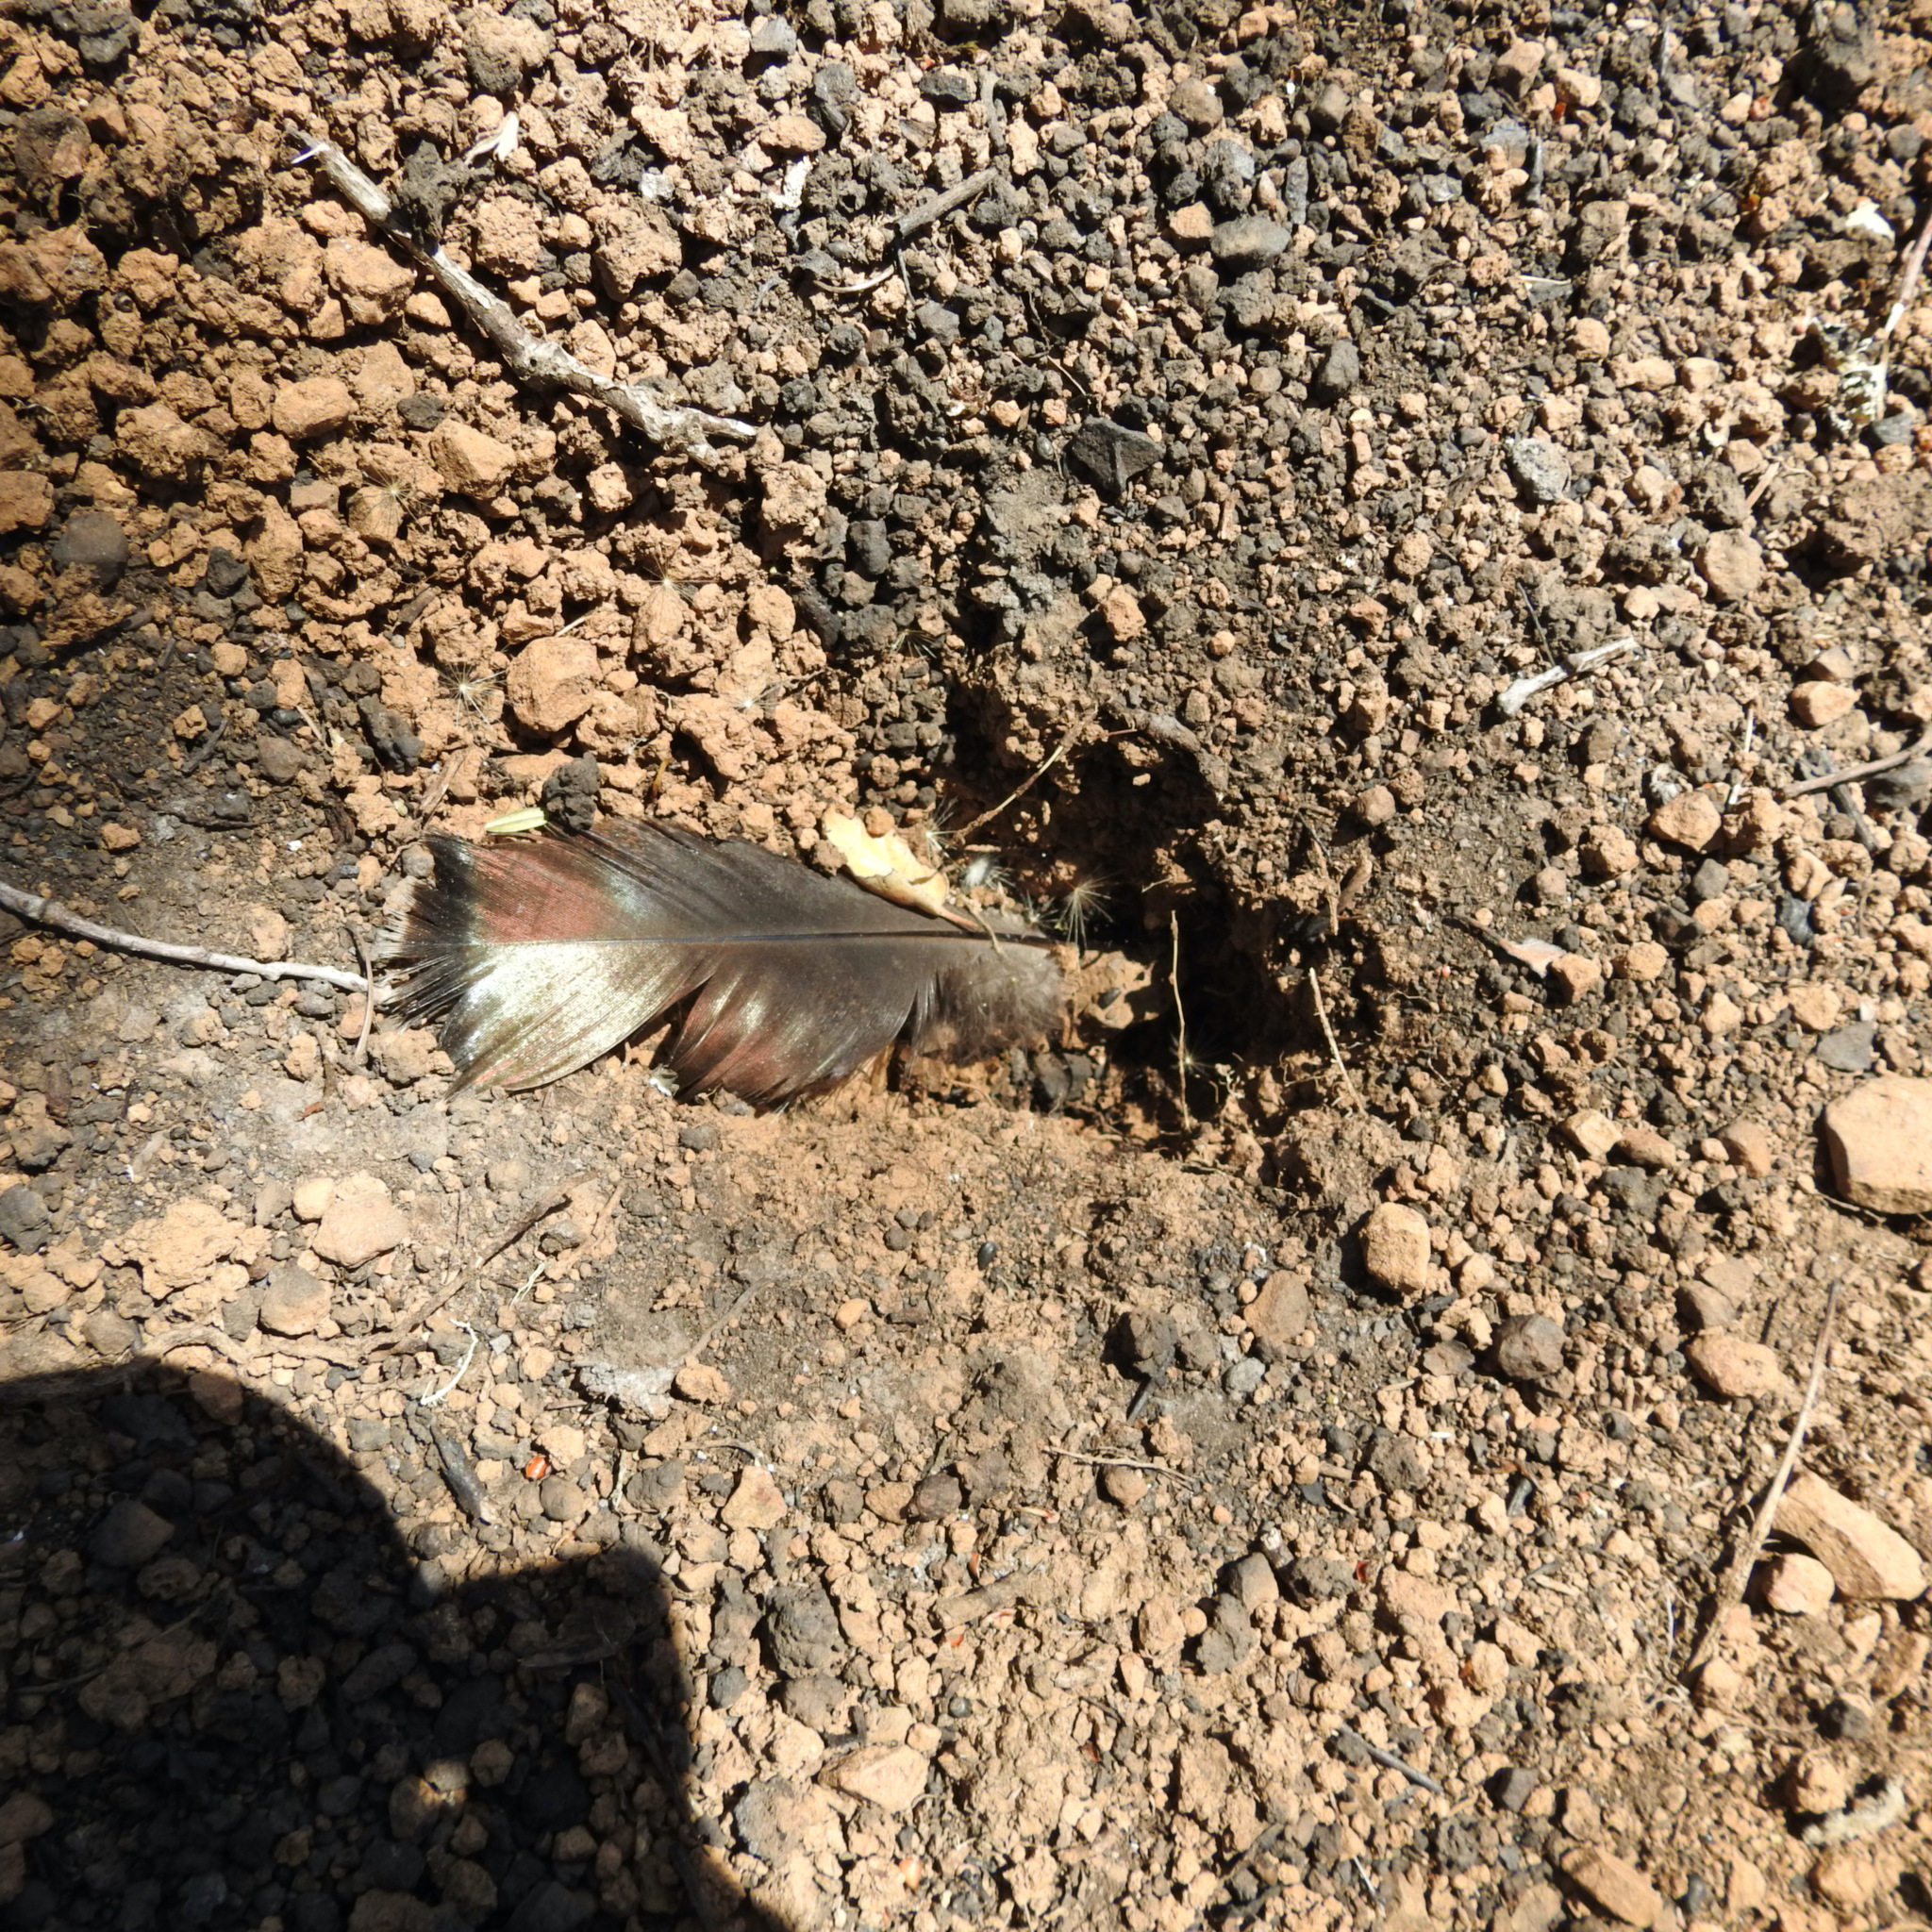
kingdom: Animalia
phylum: Chordata
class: Aves
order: Galliformes
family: Phasianidae
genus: Meleagris
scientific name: Meleagris gallopavo
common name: Wild turkey
